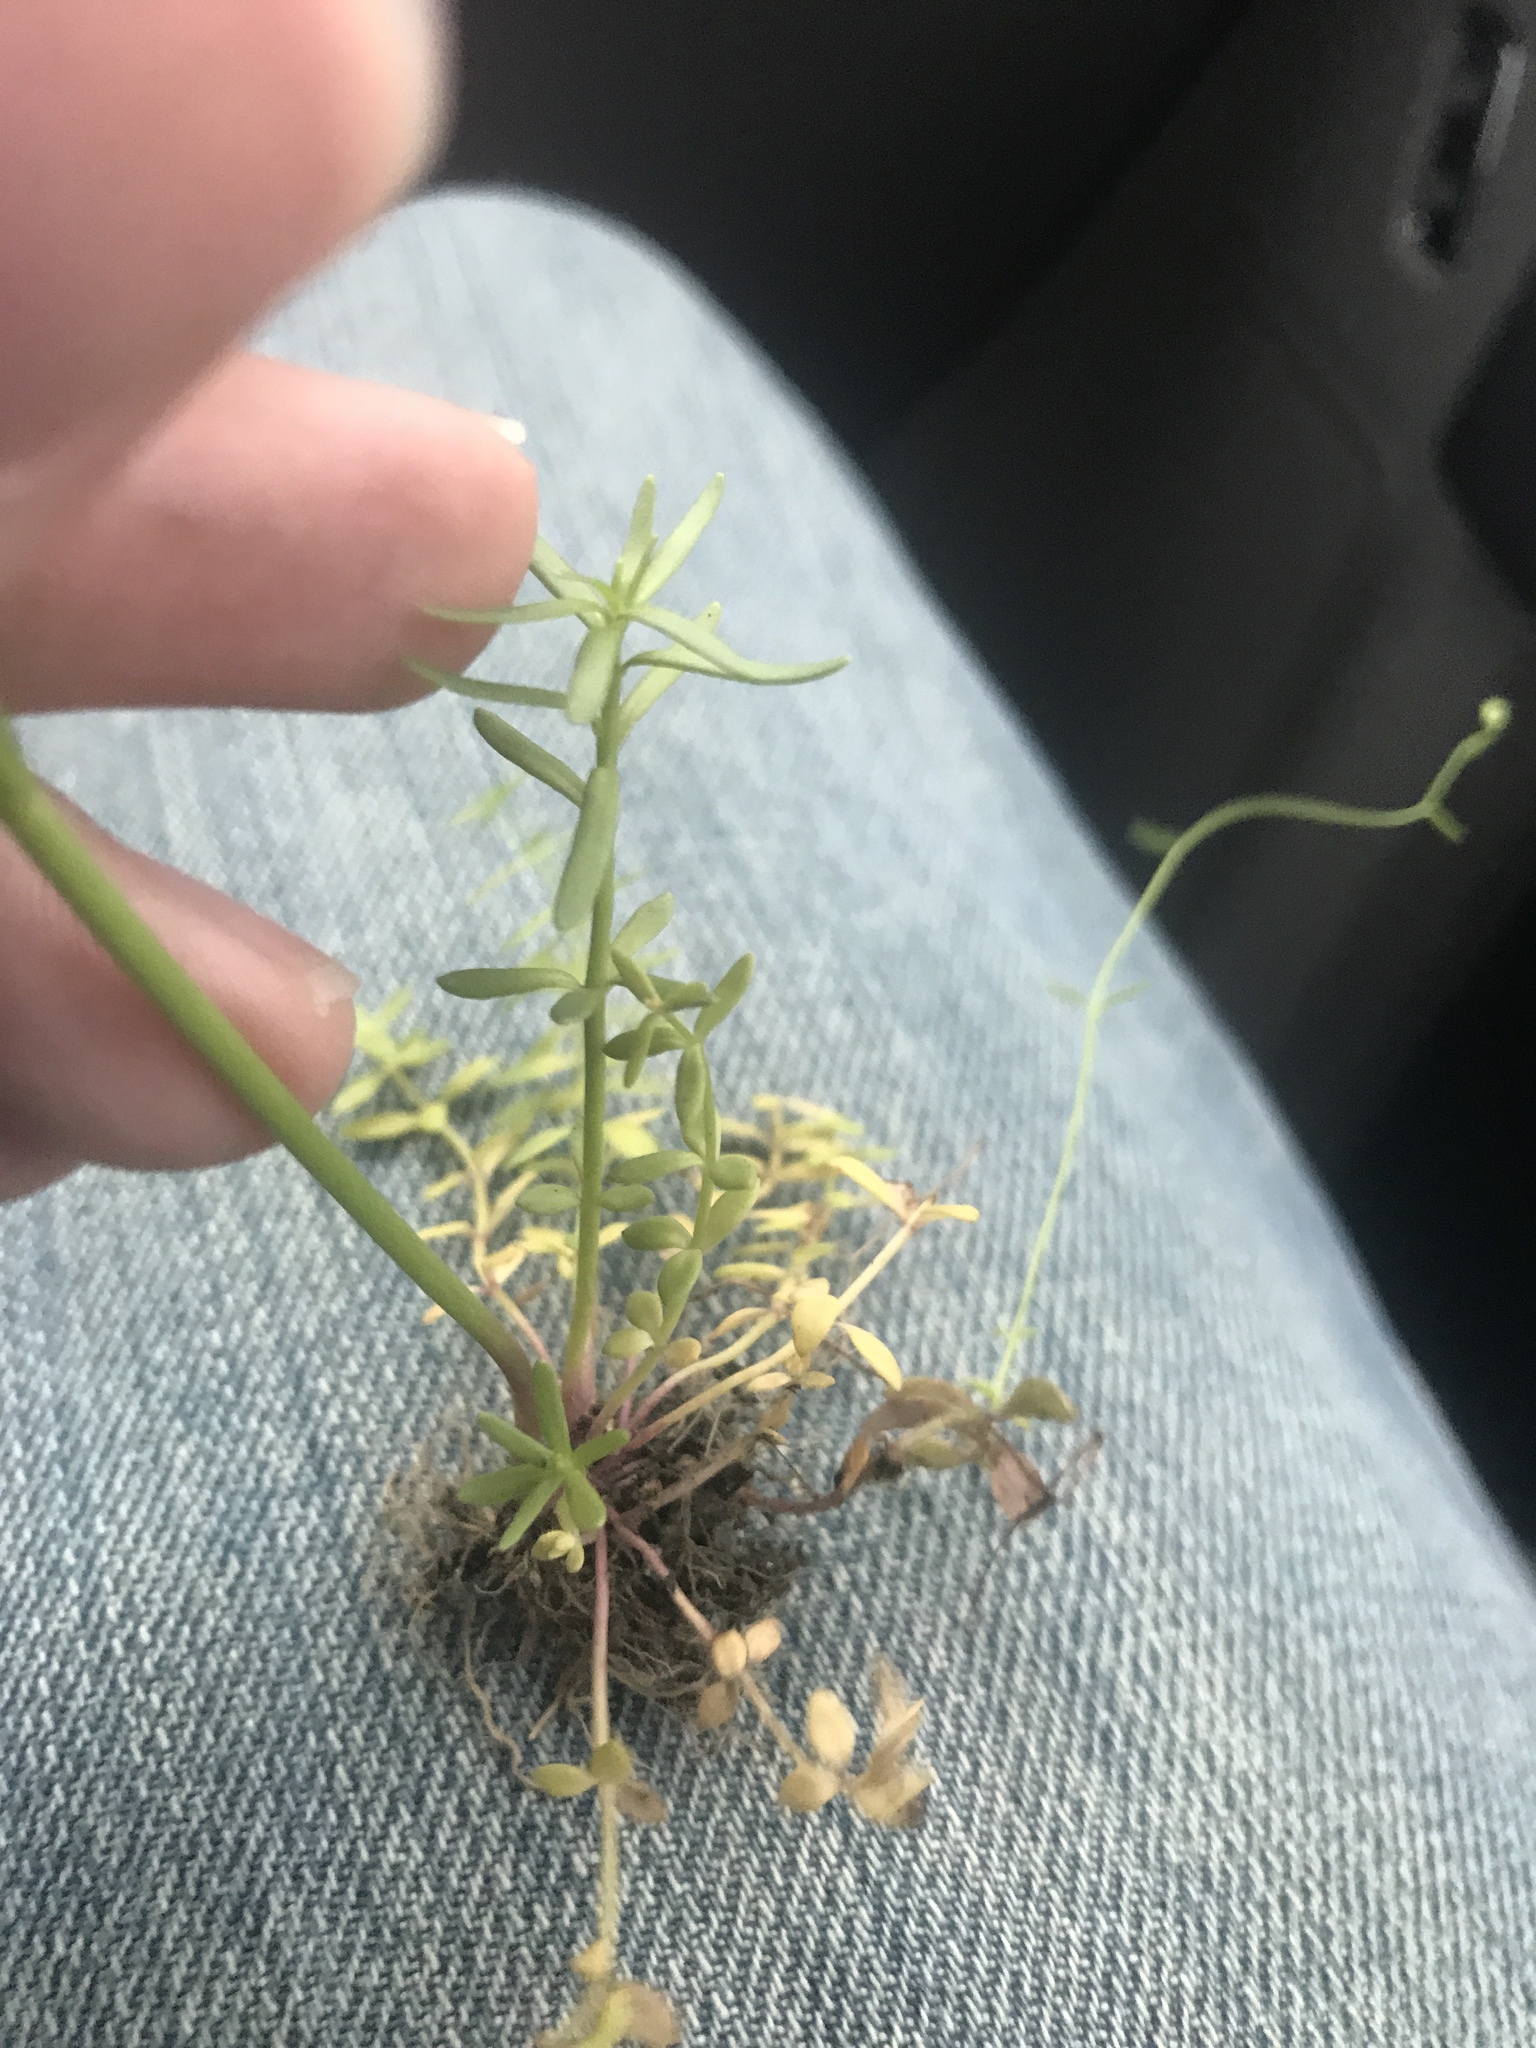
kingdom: Plantae
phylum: Tracheophyta
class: Magnoliopsida
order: Lamiales
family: Plantaginaceae
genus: Nuttallanthus
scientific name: Nuttallanthus texanus
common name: Texas toadflax
